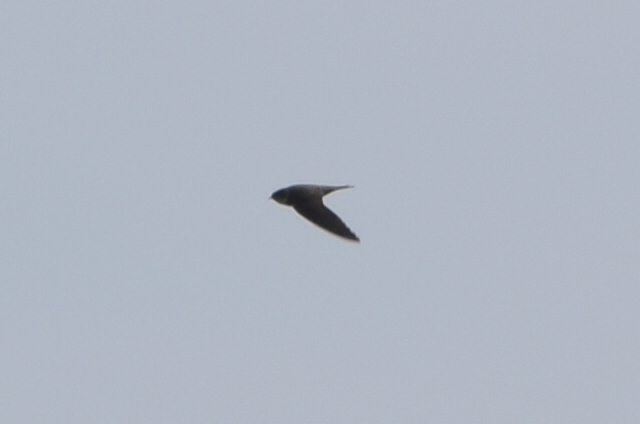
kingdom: Animalia
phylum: Chordata
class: Aves
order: Passeriformes
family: Hirundinidae
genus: Riparia
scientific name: Riparia riparia
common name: Sand martin
